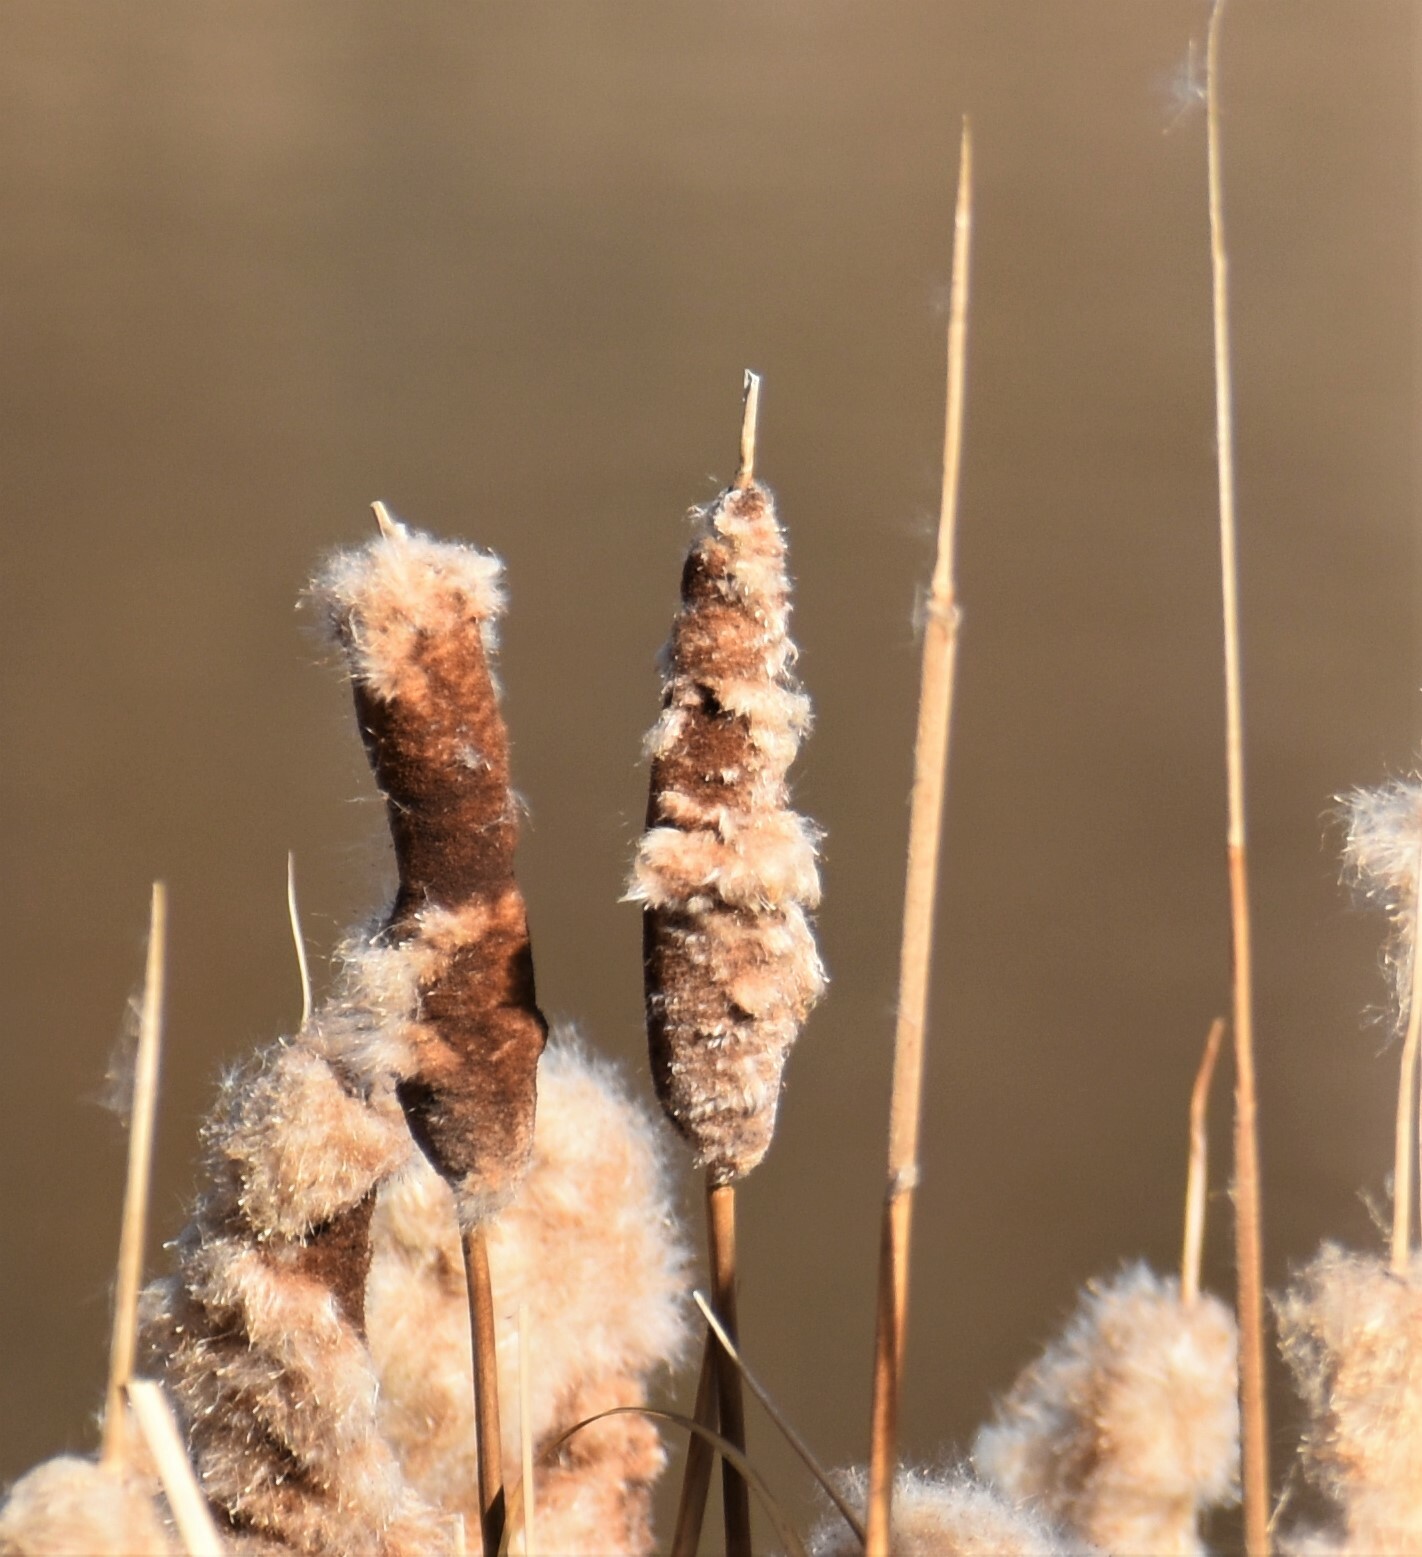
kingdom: Plantae
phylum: Tracheophyta
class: Liliopsida
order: Poales
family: Typhaceae
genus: Typha
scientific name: Typha latifolia
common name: Broadleaf cattail
